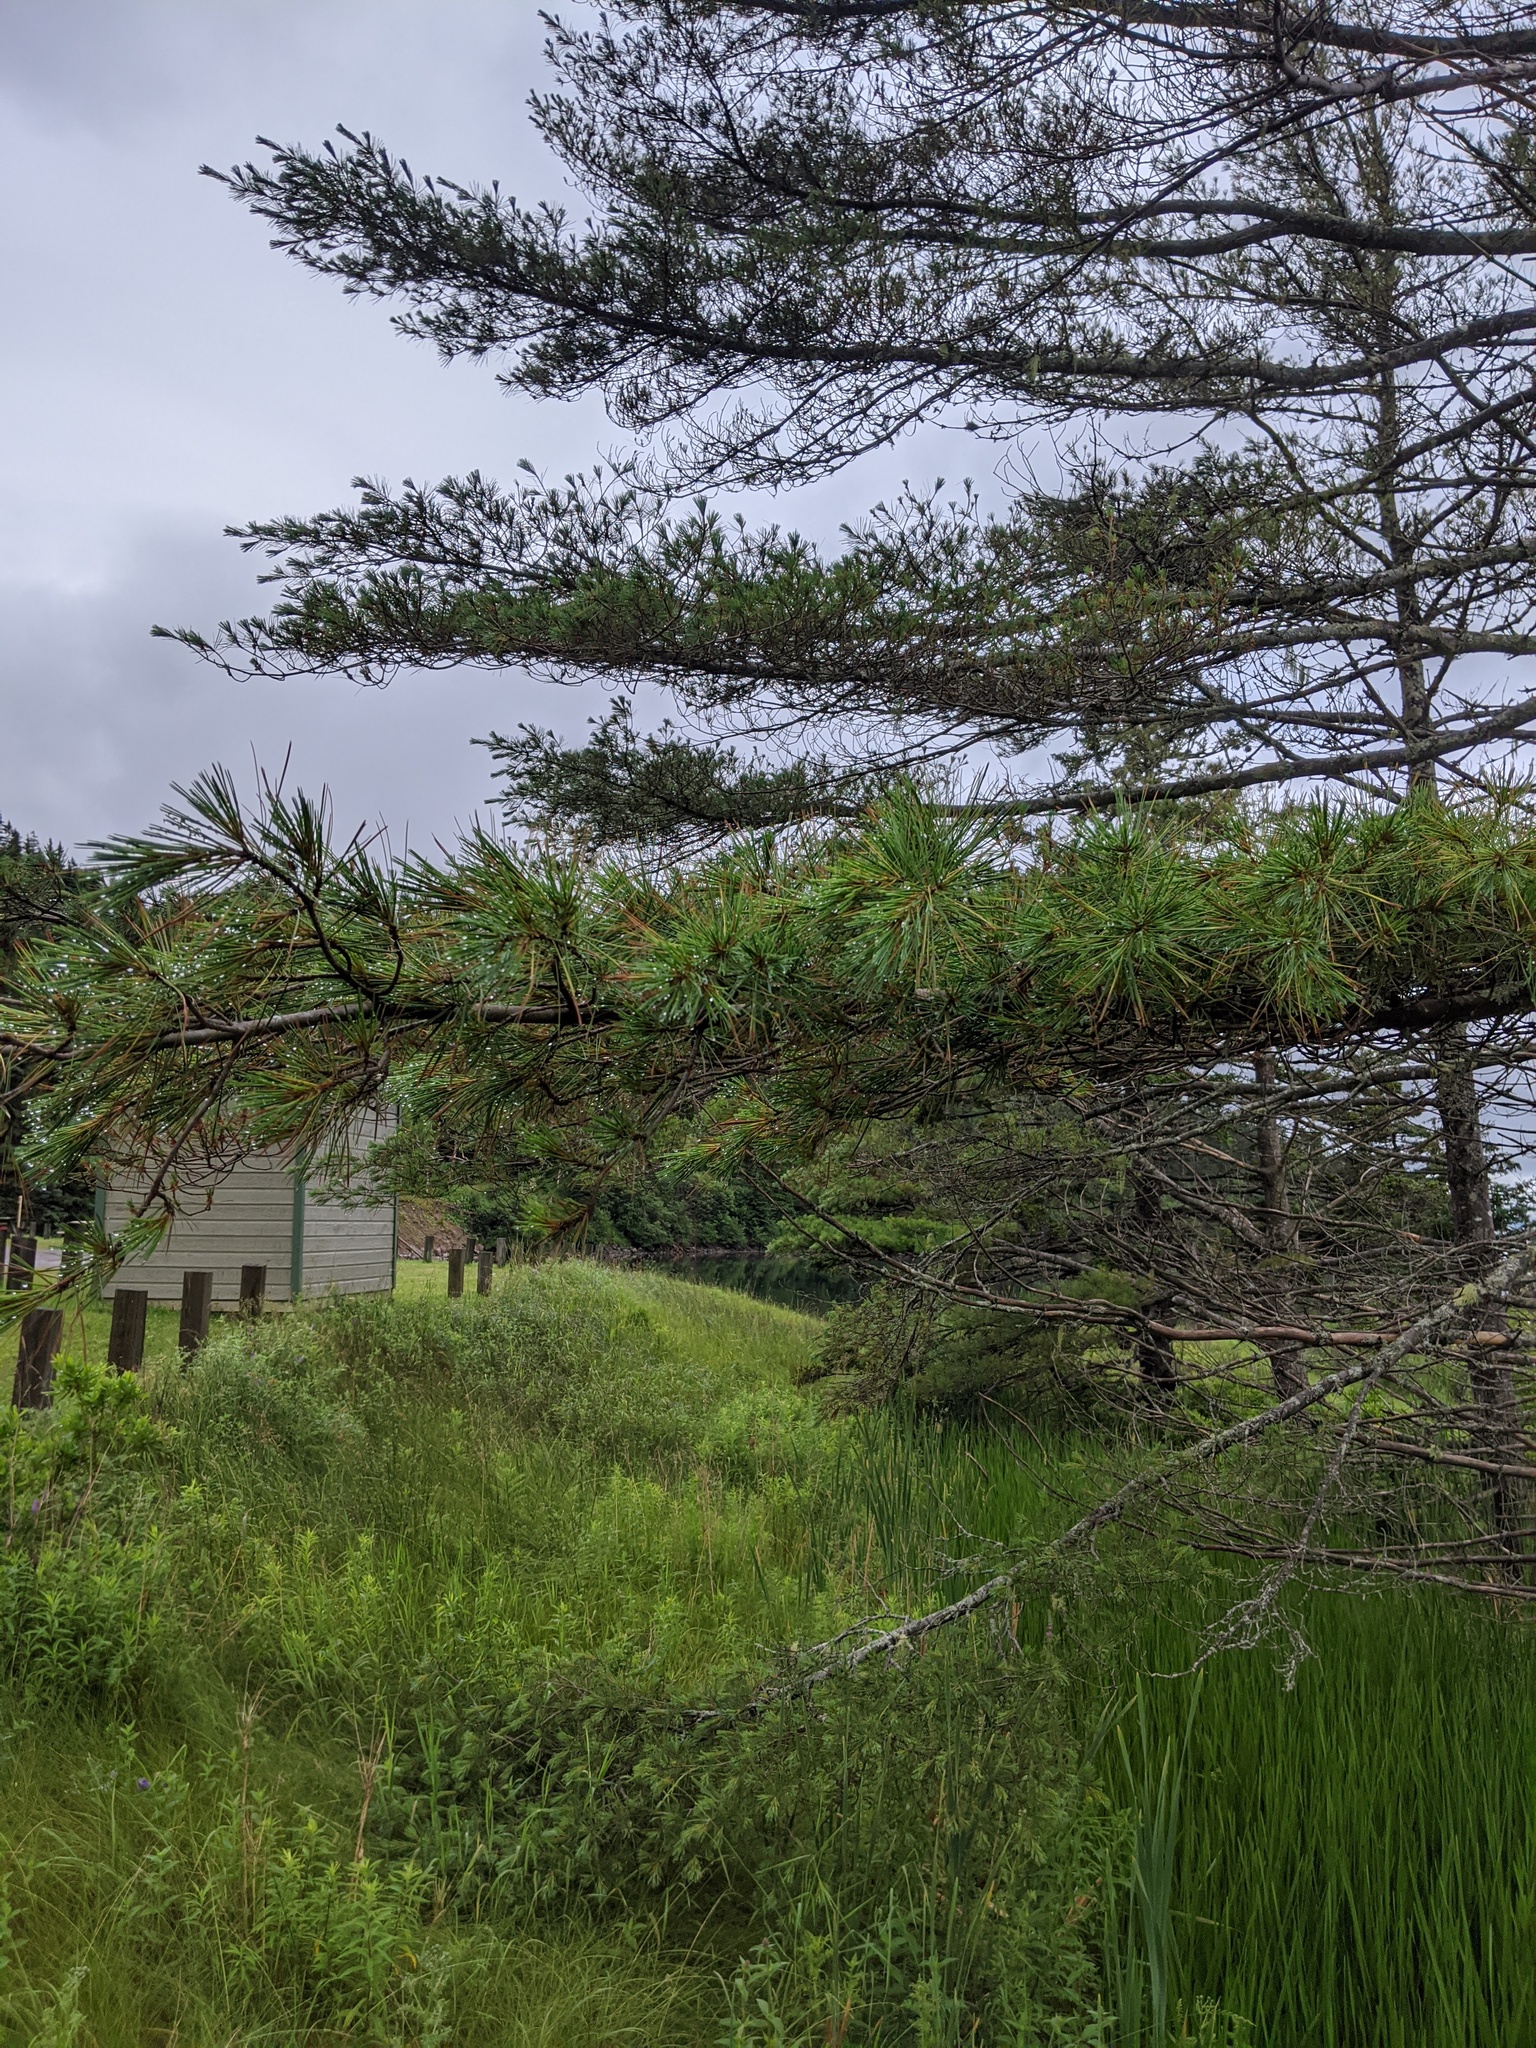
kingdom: Plantae
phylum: Tracheophyta
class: Pinopsida
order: Pinales
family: Pinaceae
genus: Pinus
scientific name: Pinus strobus
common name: Weymouth pine
